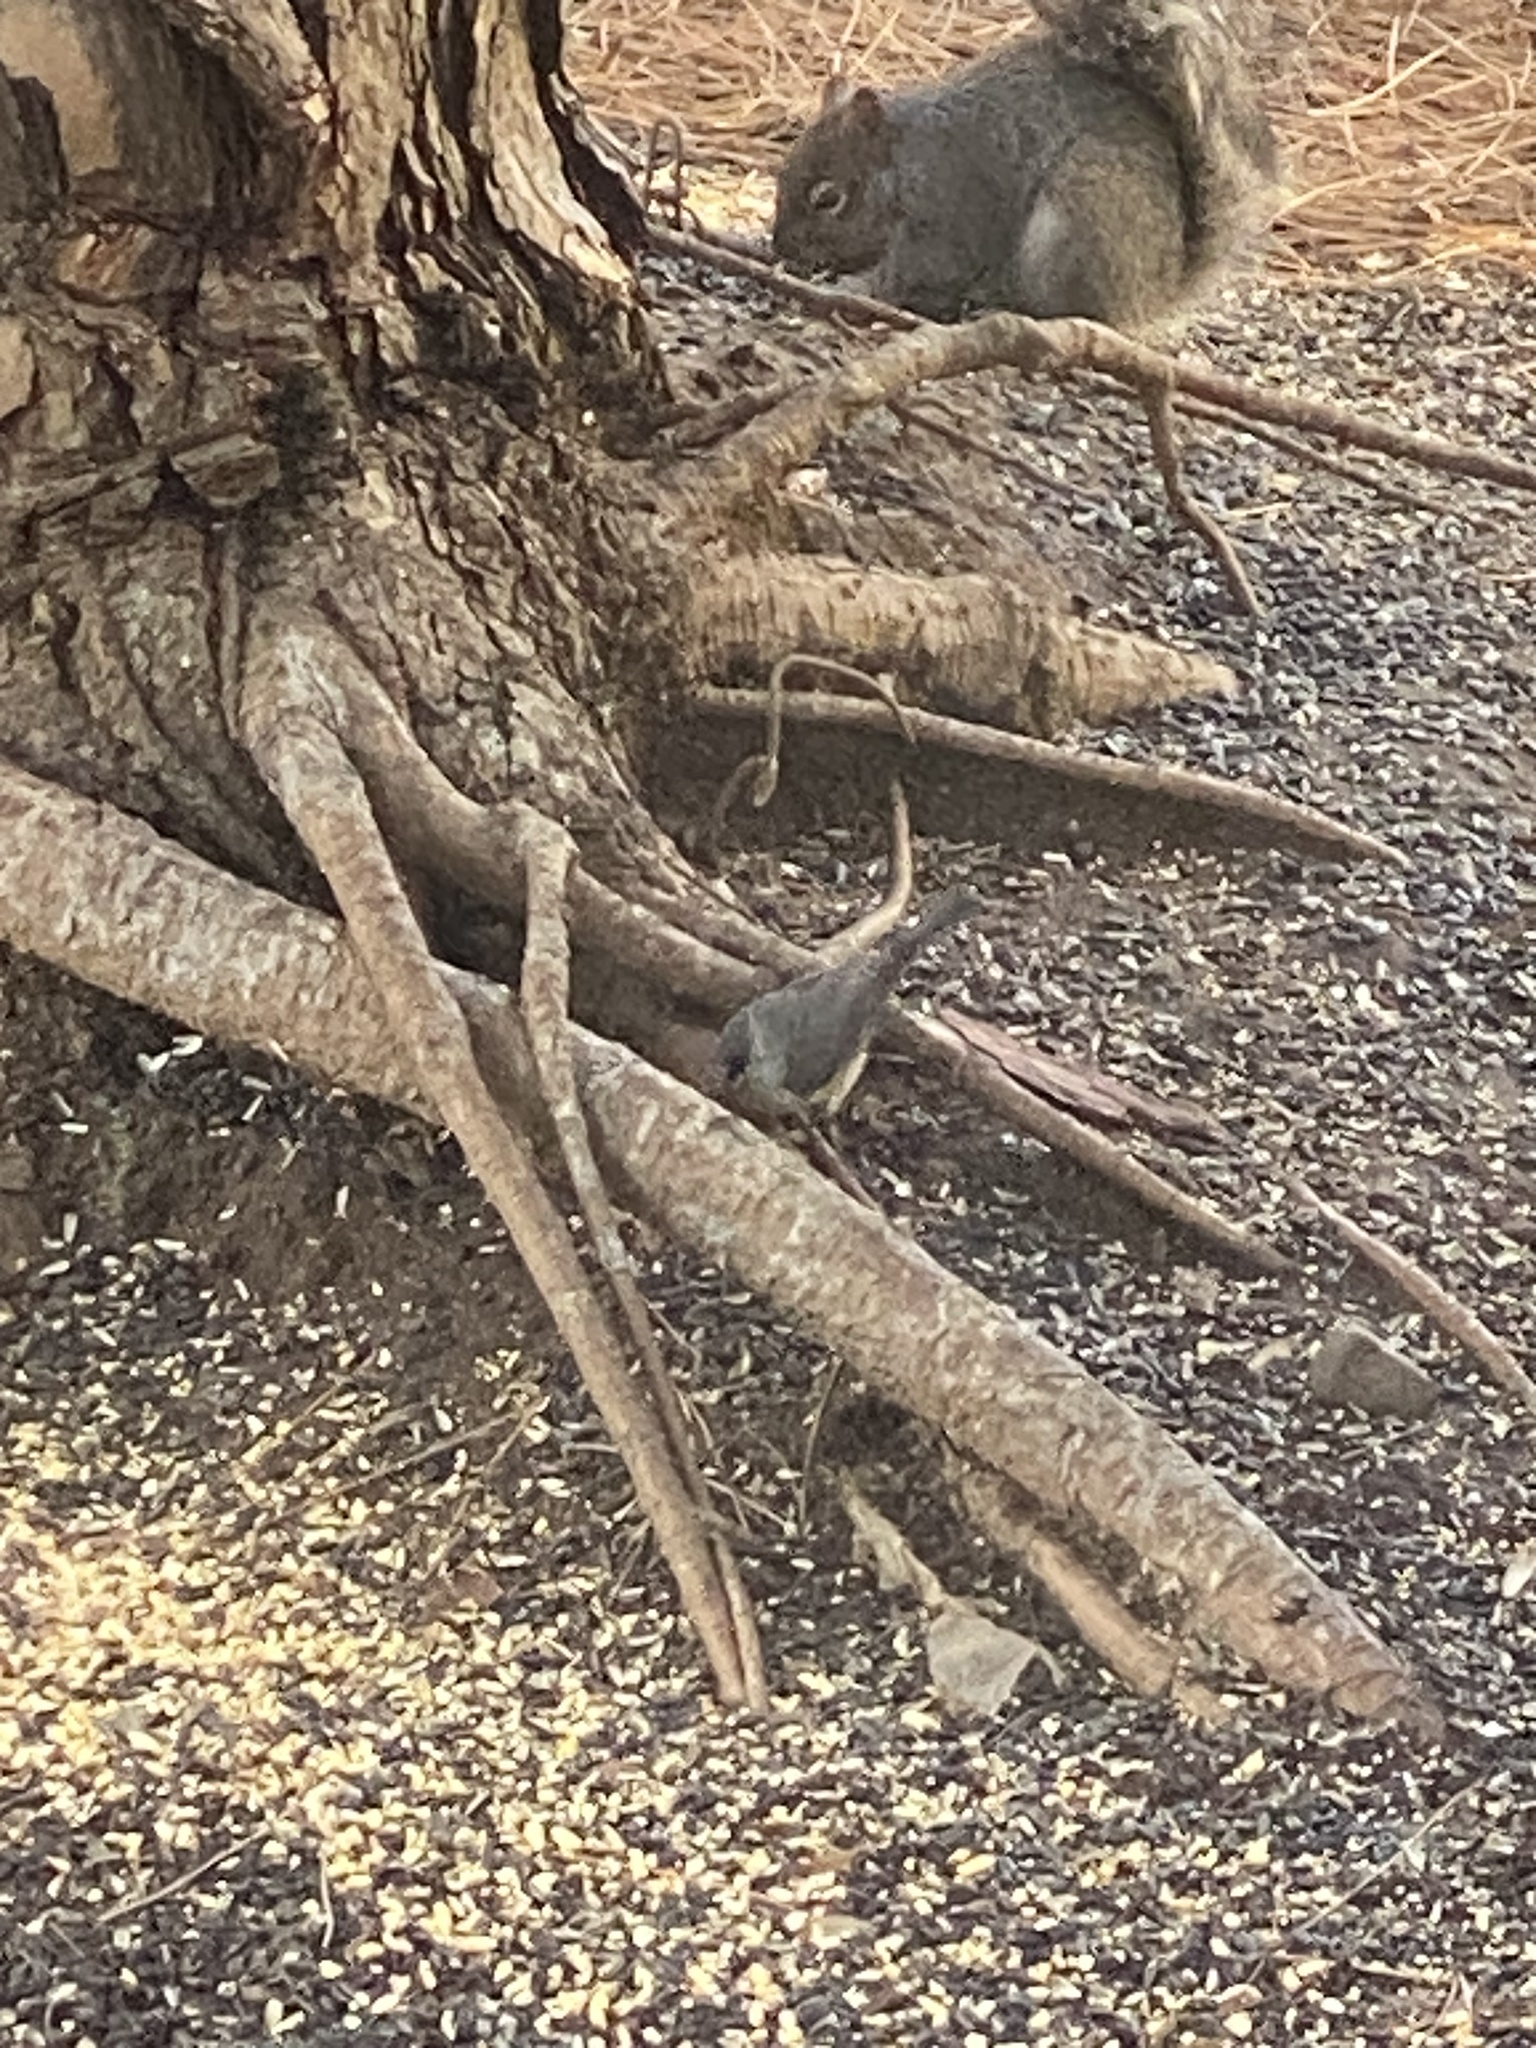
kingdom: Animalia
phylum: Chordata
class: Aves
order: Passeriformes
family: Paridae
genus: Baeolophus
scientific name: Baeolophus bicolor
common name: Tufted titmouse
